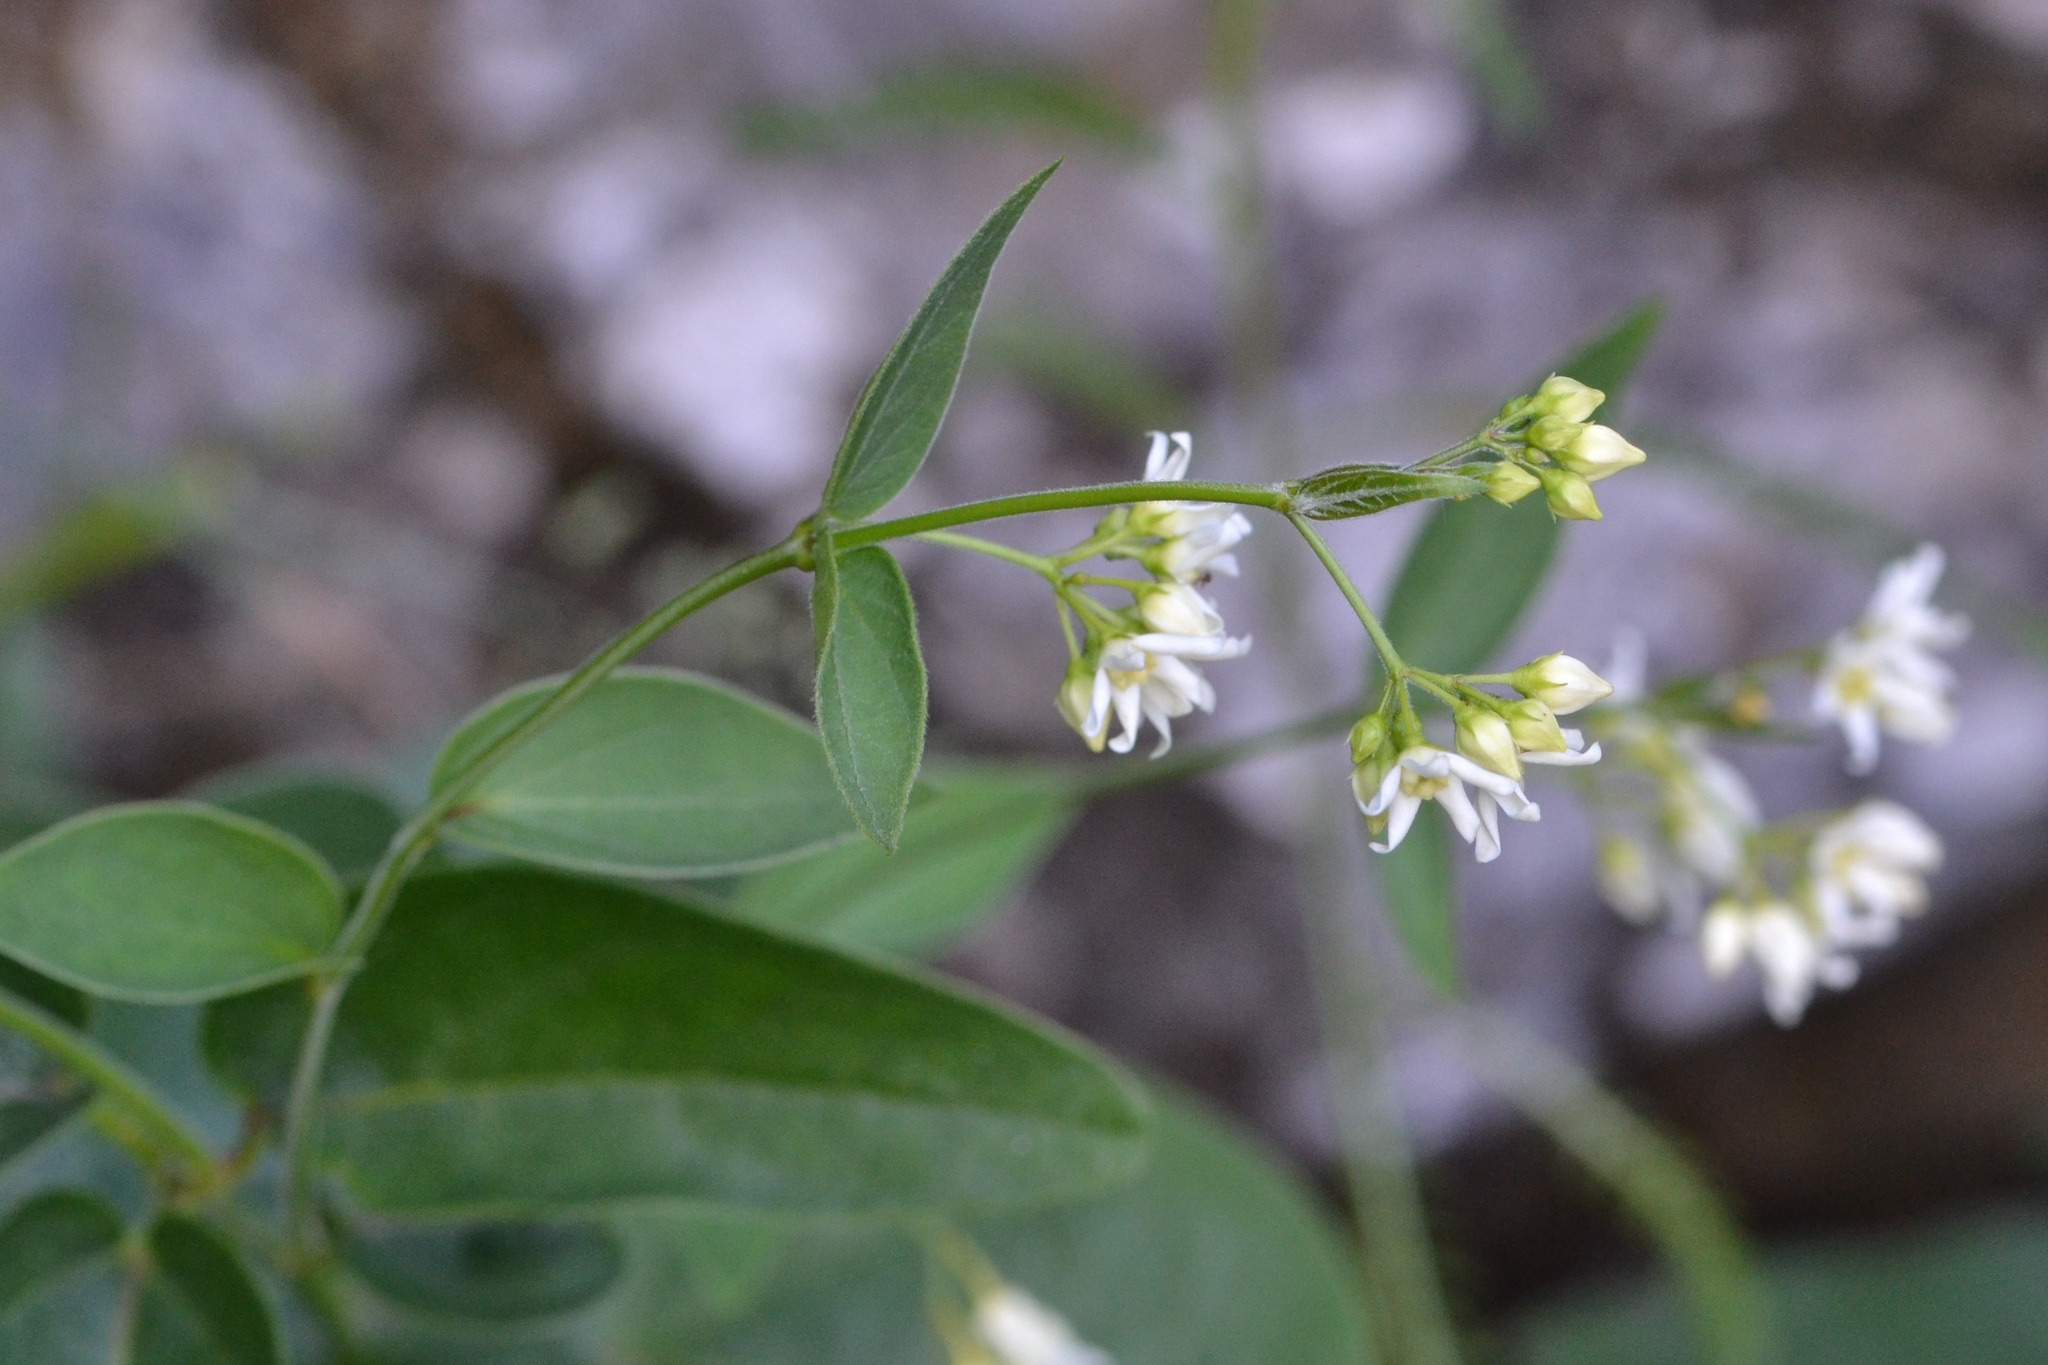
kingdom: Plantae
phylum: Tracheophyta
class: Magnoliopsida
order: Gentianales
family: Apocynaceae
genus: Vincetoxicum
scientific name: Vincetoxicum hirundinaria
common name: White swallowwort
